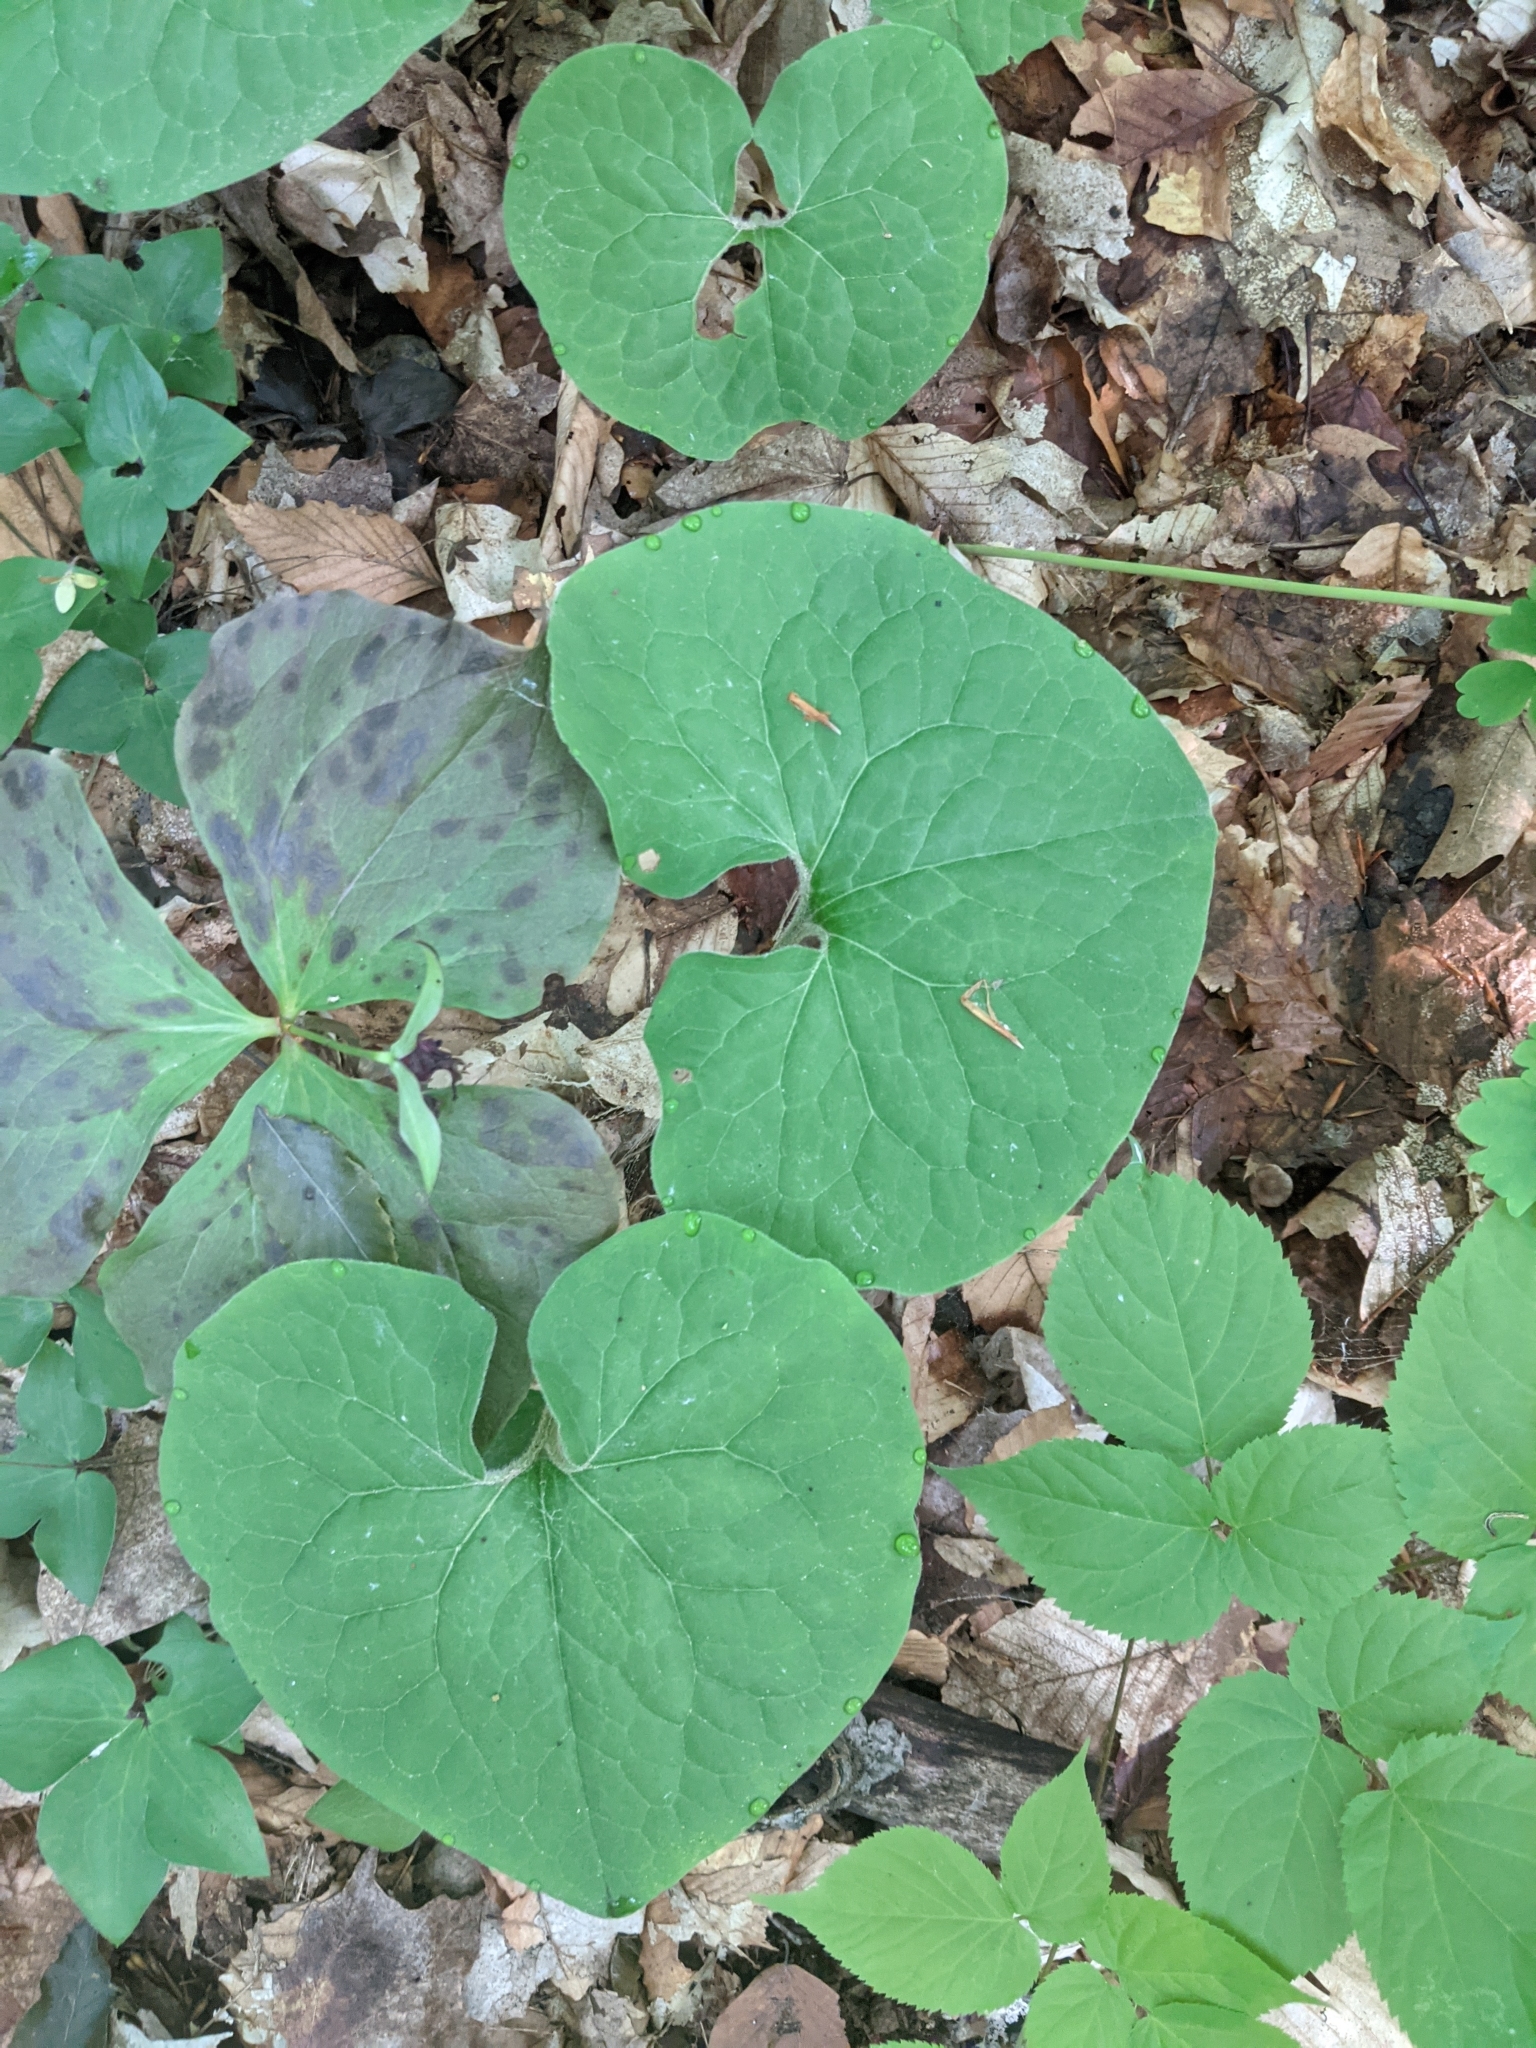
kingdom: Plantae
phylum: Tracheophyta
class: Magnoliopsida
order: Piperales
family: Aristolochiaceae
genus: Asarum
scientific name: Asarum canadense
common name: Wild ginger
